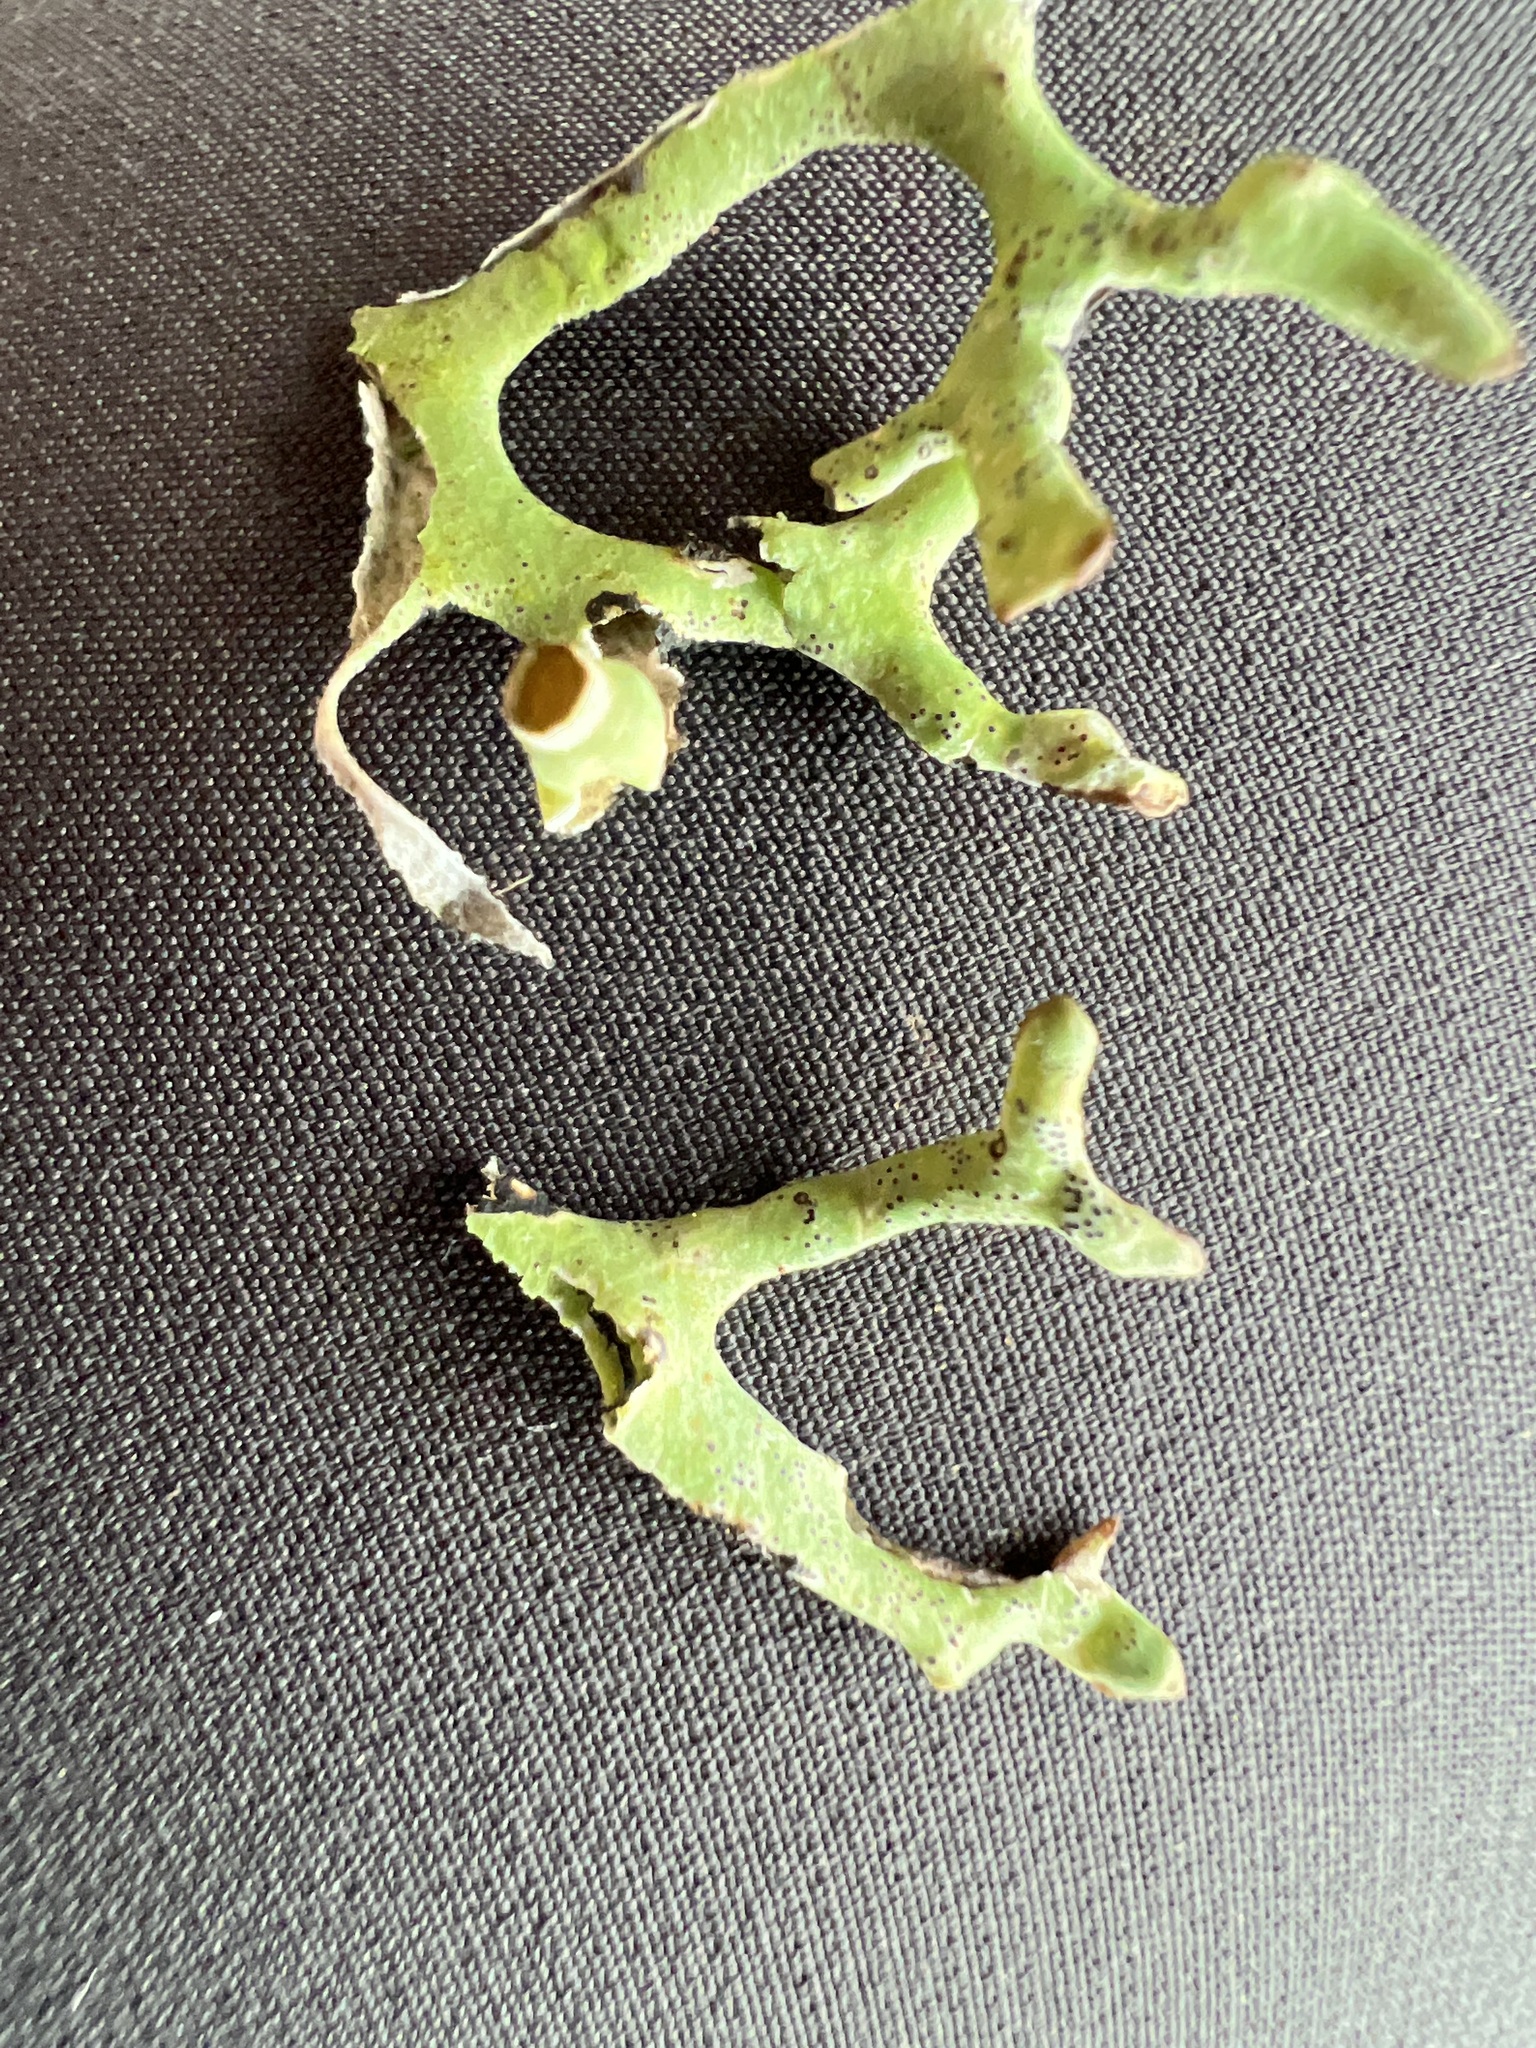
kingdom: Fungi
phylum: Ascomycota
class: Lecanoromycetes
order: Lecanorales
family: Parmeliaceae
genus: Hypogymnia
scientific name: Hypogymnia imshaugii
